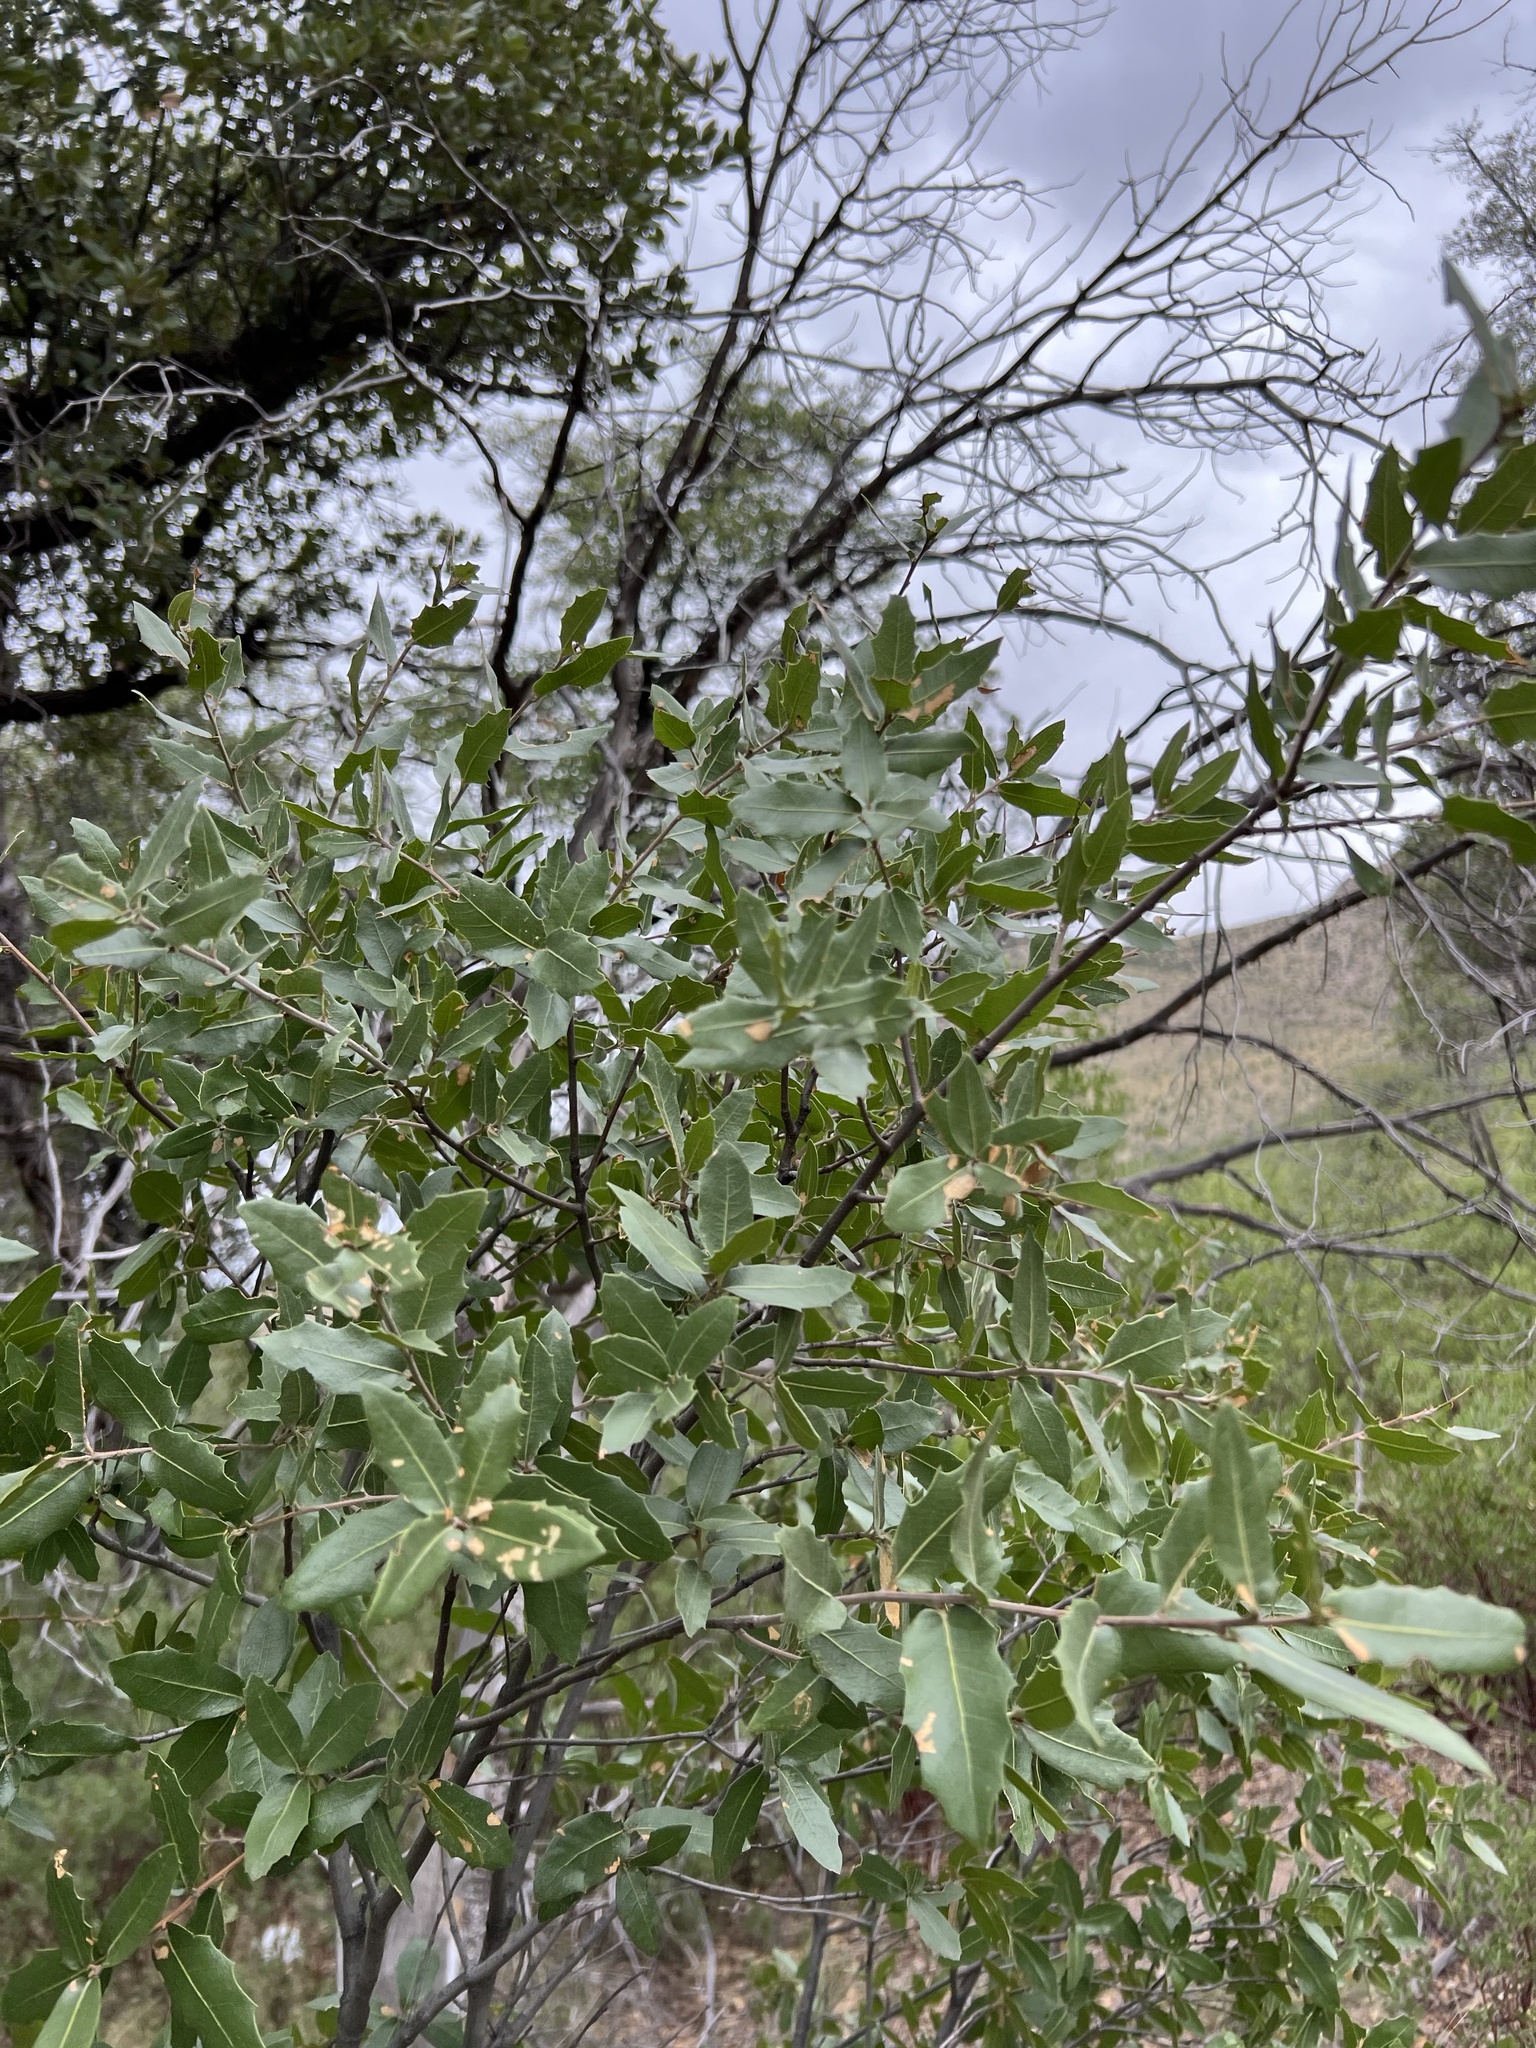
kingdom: Plantae
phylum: Tracheophyta
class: Magnoliopsida
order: Fagales
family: Fagaceae
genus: Quercus
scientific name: Quercus emoryi
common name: Emory oak
